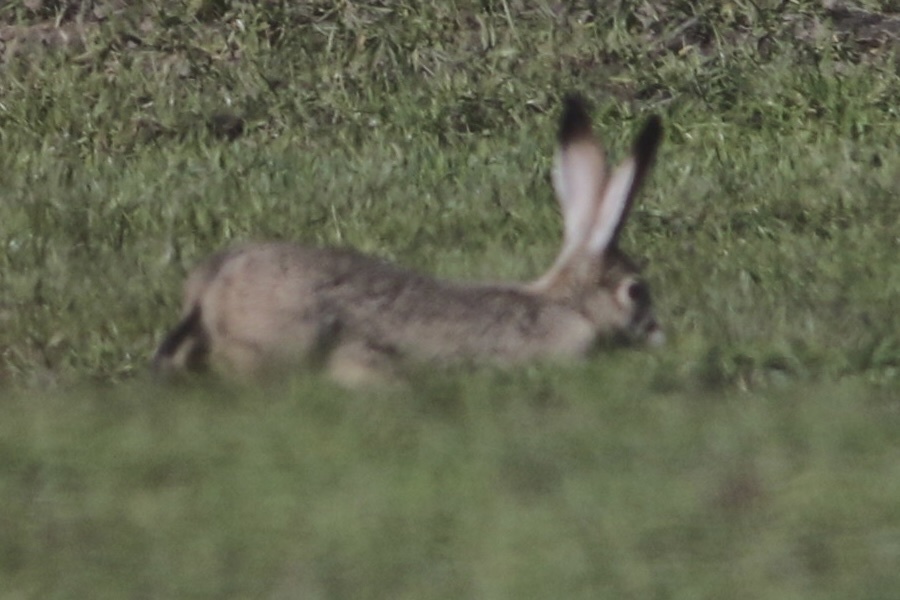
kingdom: Animalia
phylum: Chordata
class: Mammalia
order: Lagomorpha
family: Leporidae
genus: Lepus
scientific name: Lepus californicus
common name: Black-tailed jackrabbit
